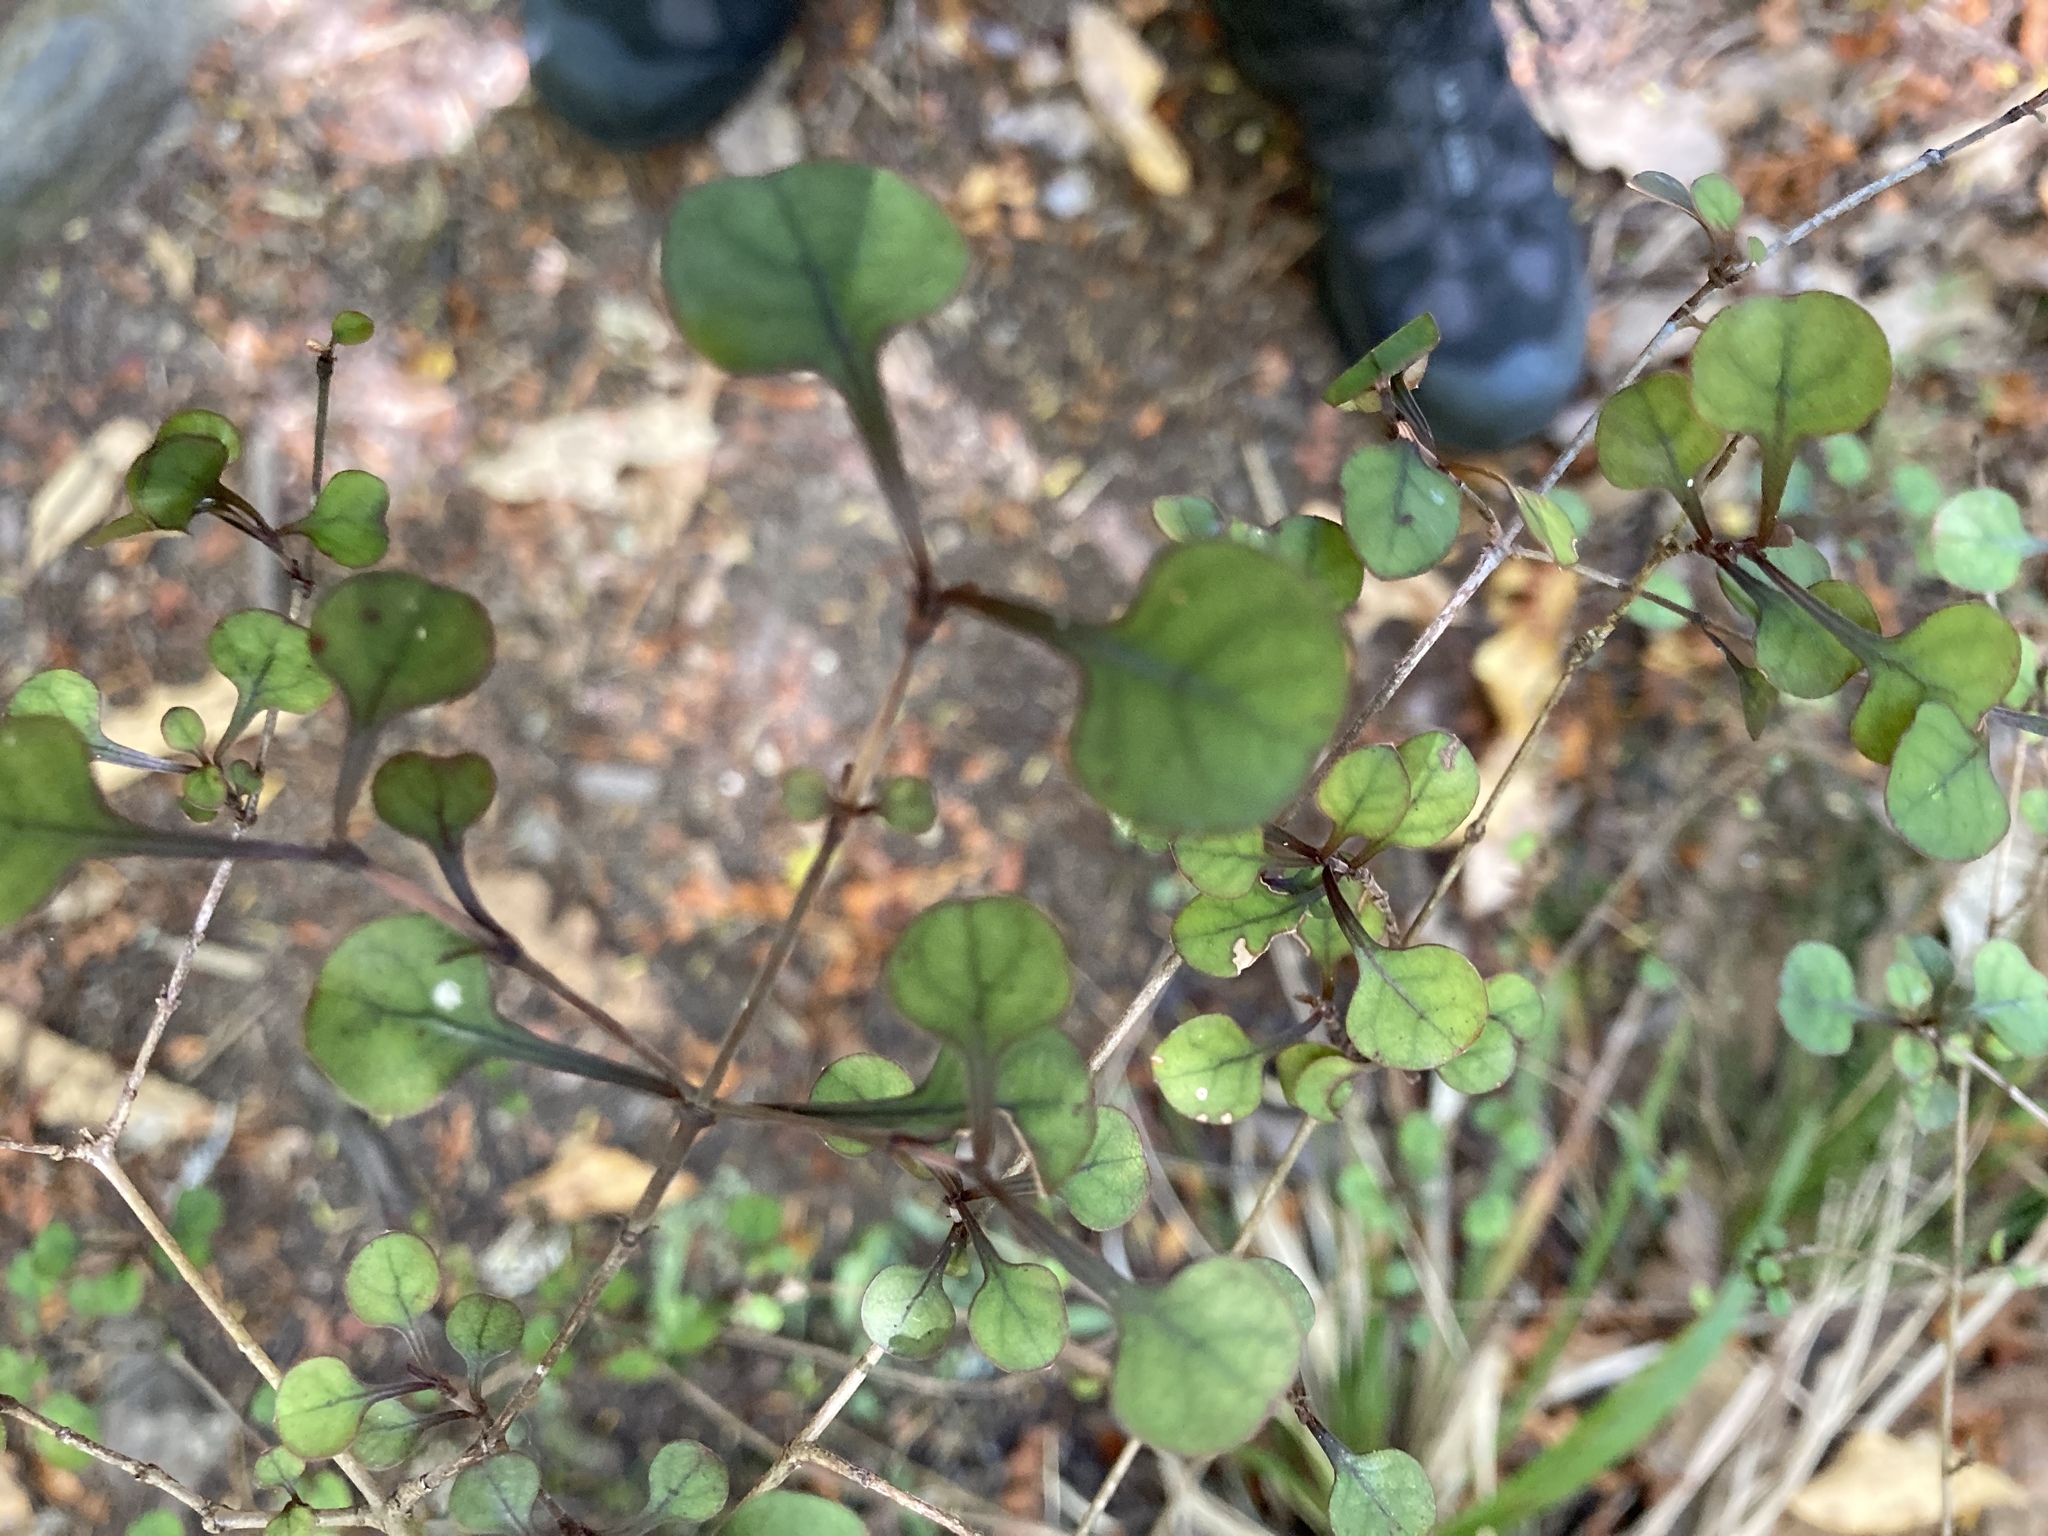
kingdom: Plantae
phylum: Tracheophyta
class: Magnoliopsida
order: Gentianales
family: Rubiaceae
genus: Coprosma
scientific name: Coprosma arborea
